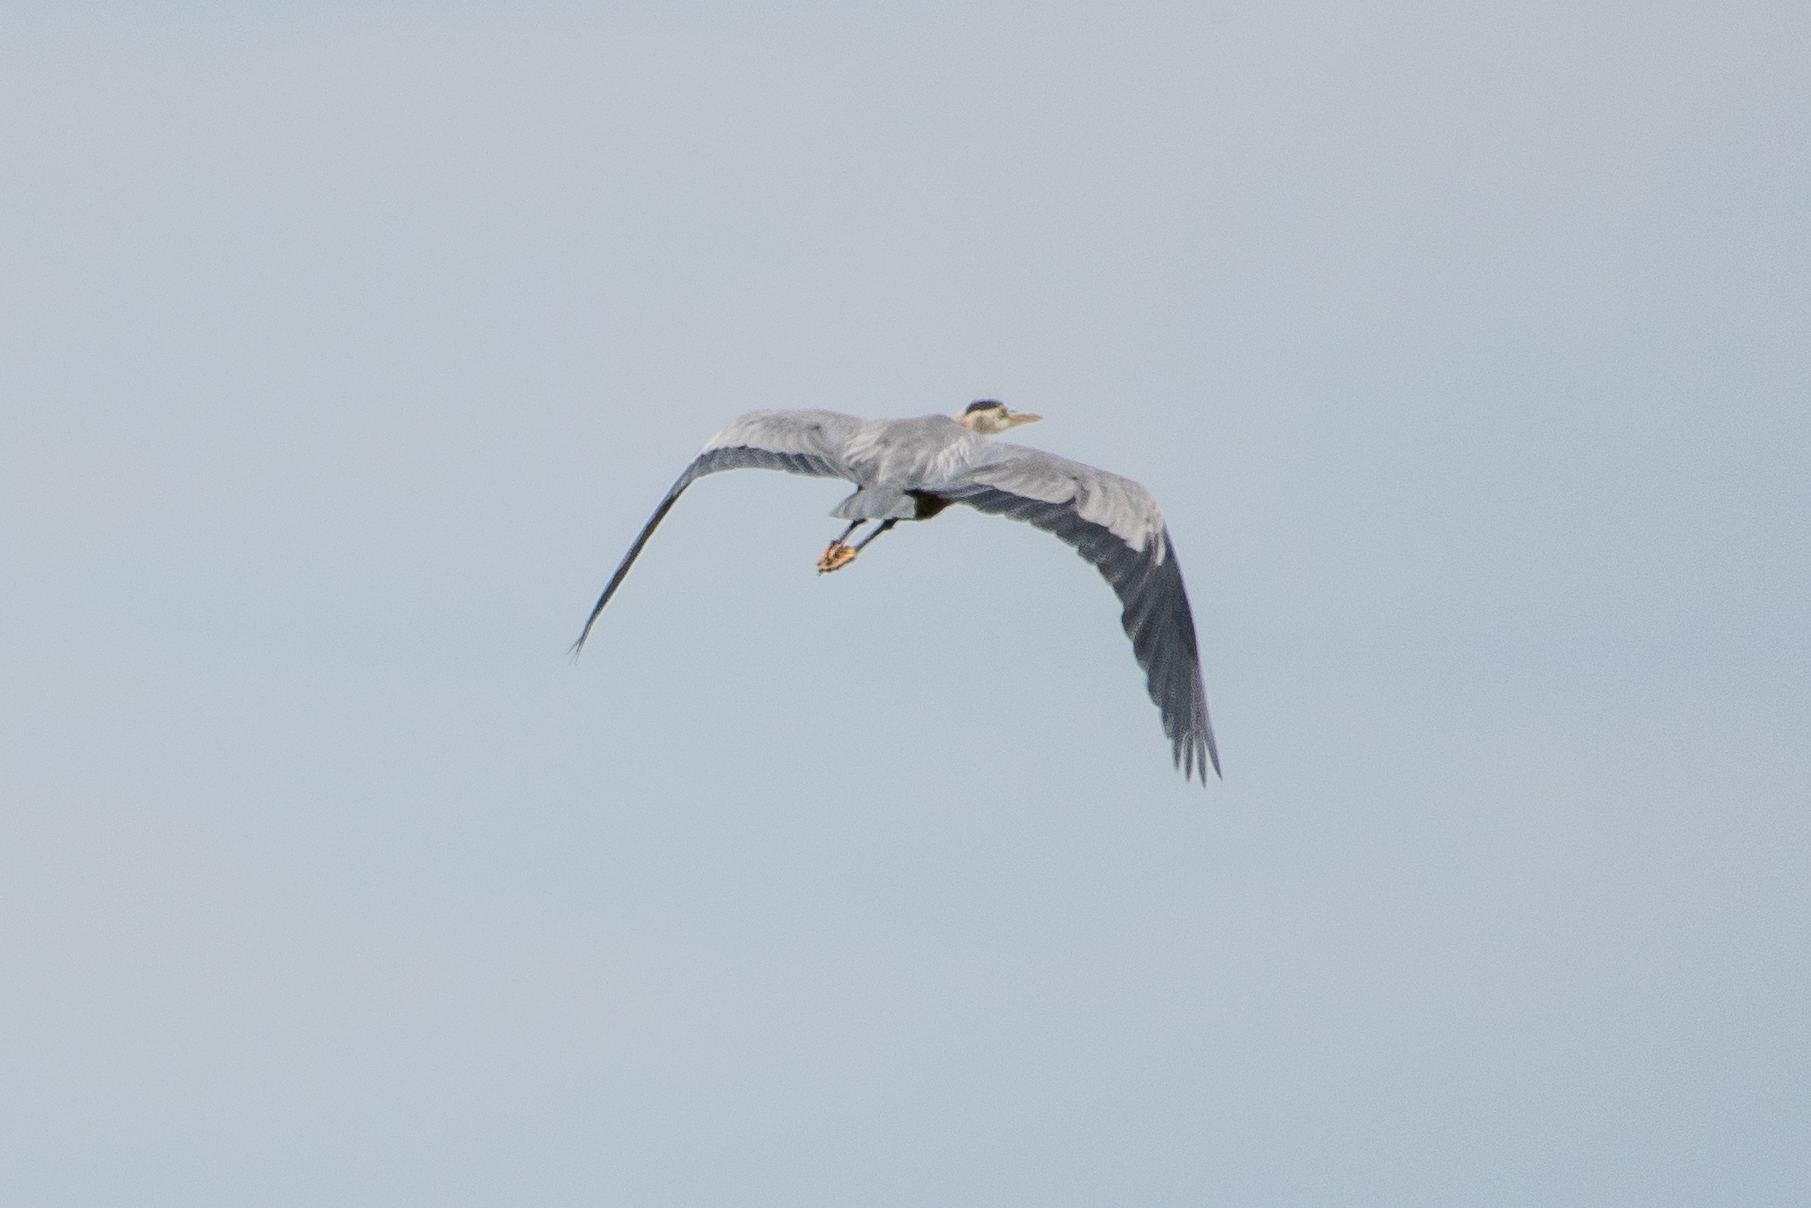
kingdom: Animalia
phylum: Chordata
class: Aves
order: Pelecaniformes
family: Ardeidae
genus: Ardea
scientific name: Ardea herodias
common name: Great blue heron
